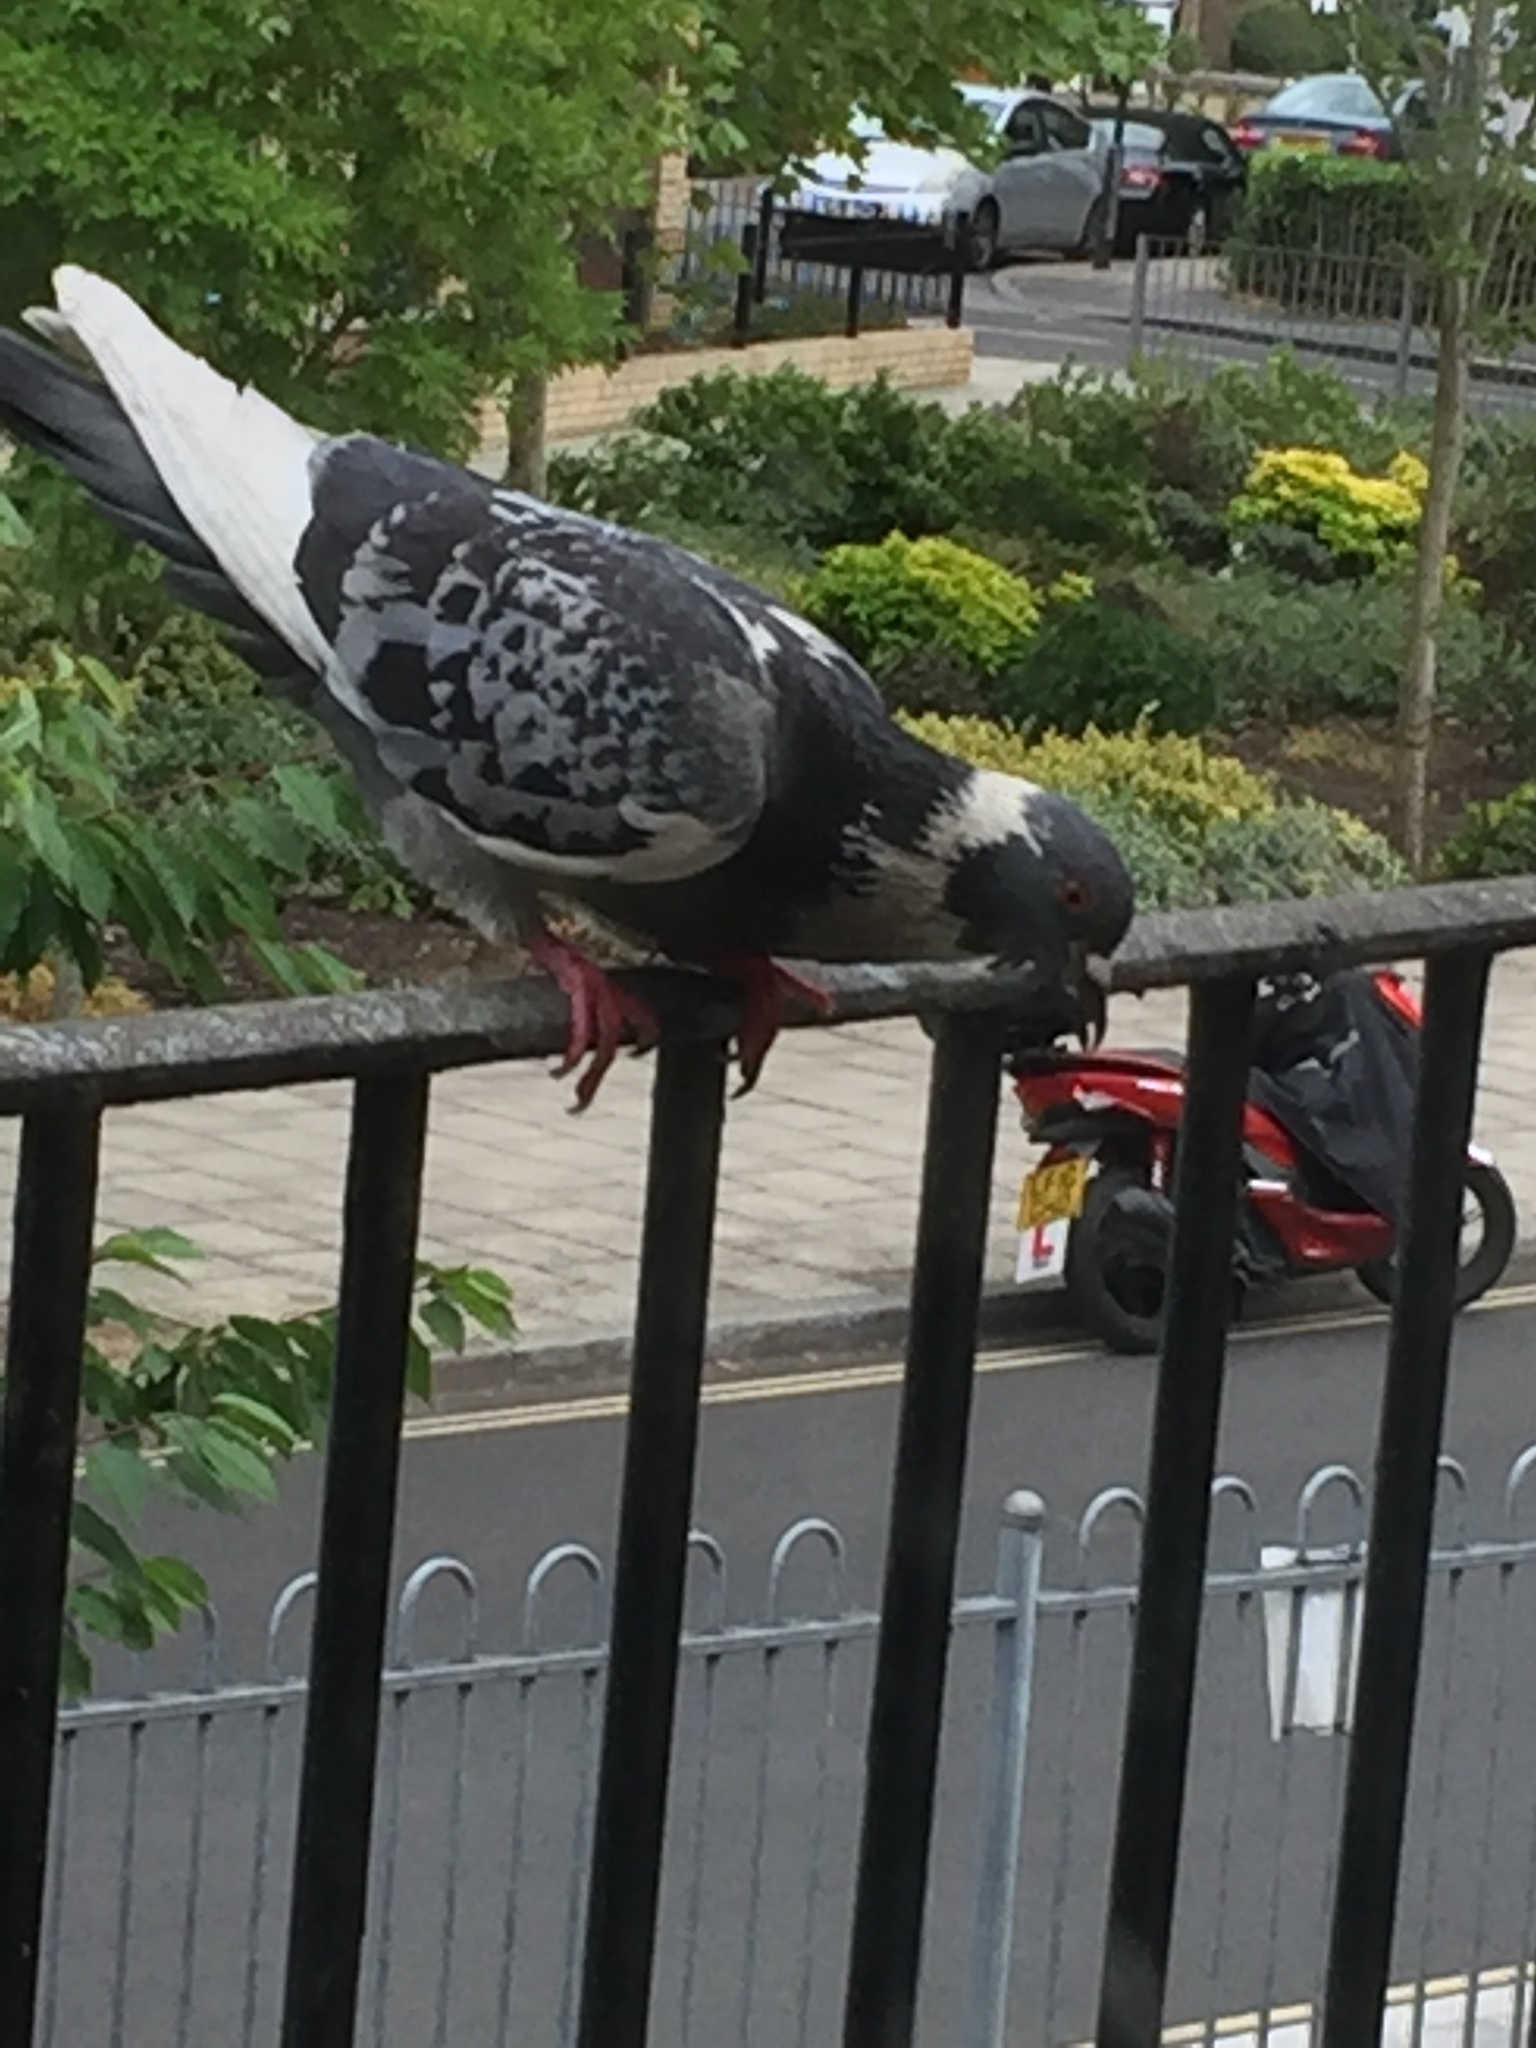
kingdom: Animalia
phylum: Chordata
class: Aves
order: Columbiformes
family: Columbidae
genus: Columba
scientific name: Columba livia
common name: Rock pigeon
